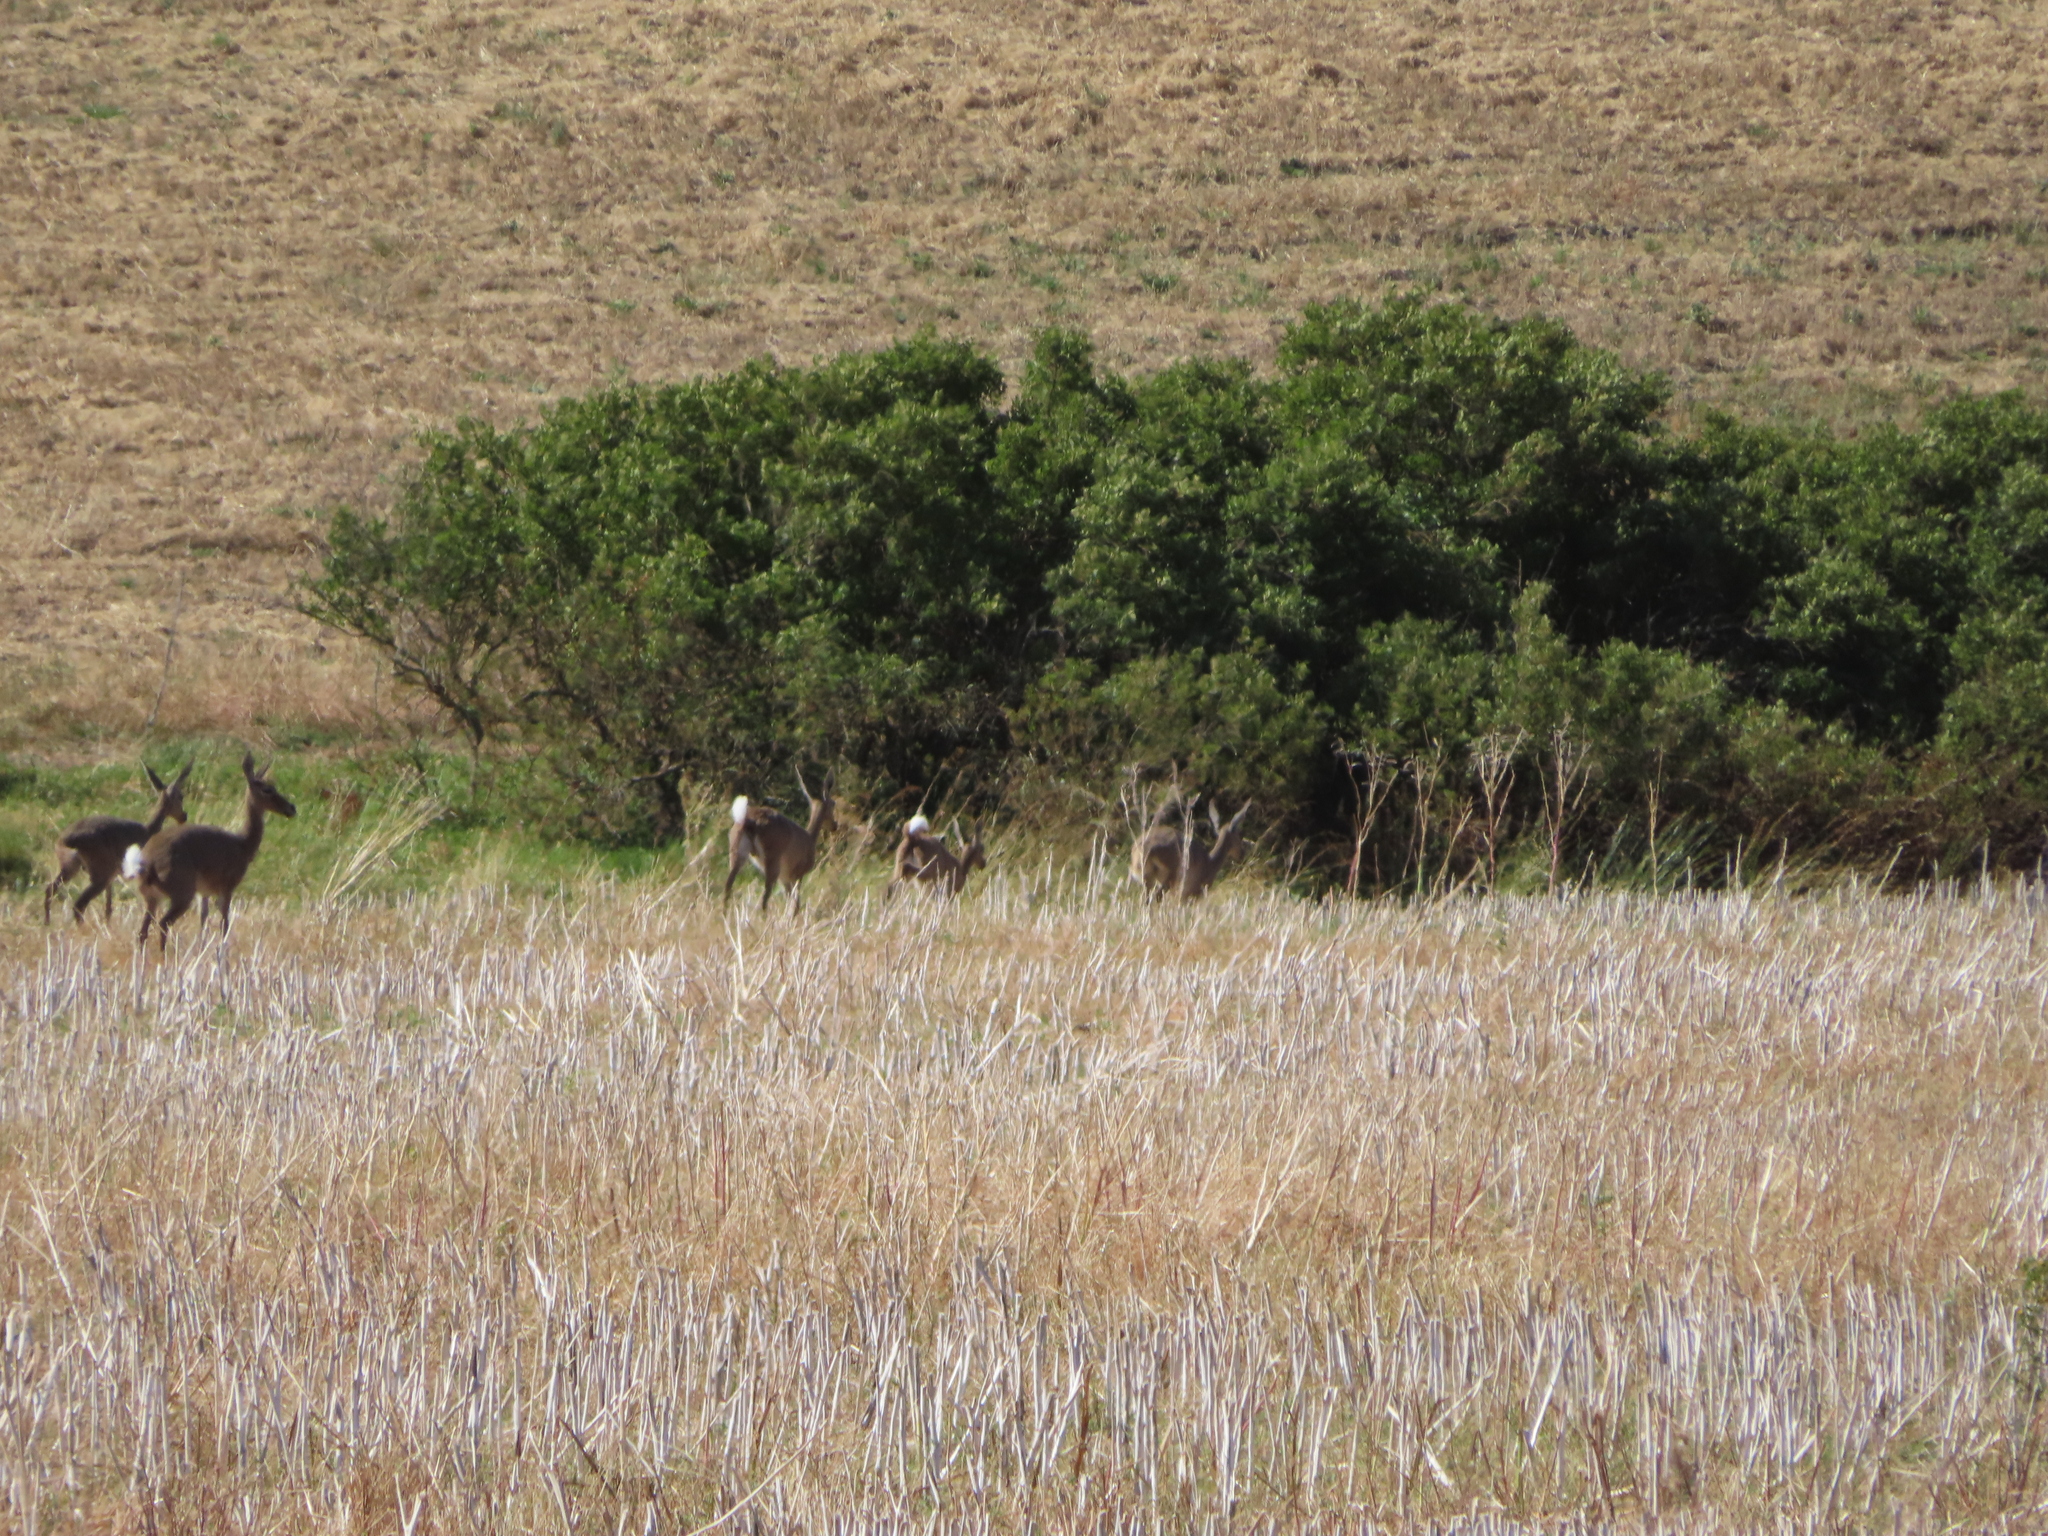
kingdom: Animalia
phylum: Chordata
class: Mammalia
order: Artiodactyla
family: Bovidae
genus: Pelea
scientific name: Pelea capreolus
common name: Common rhebok
